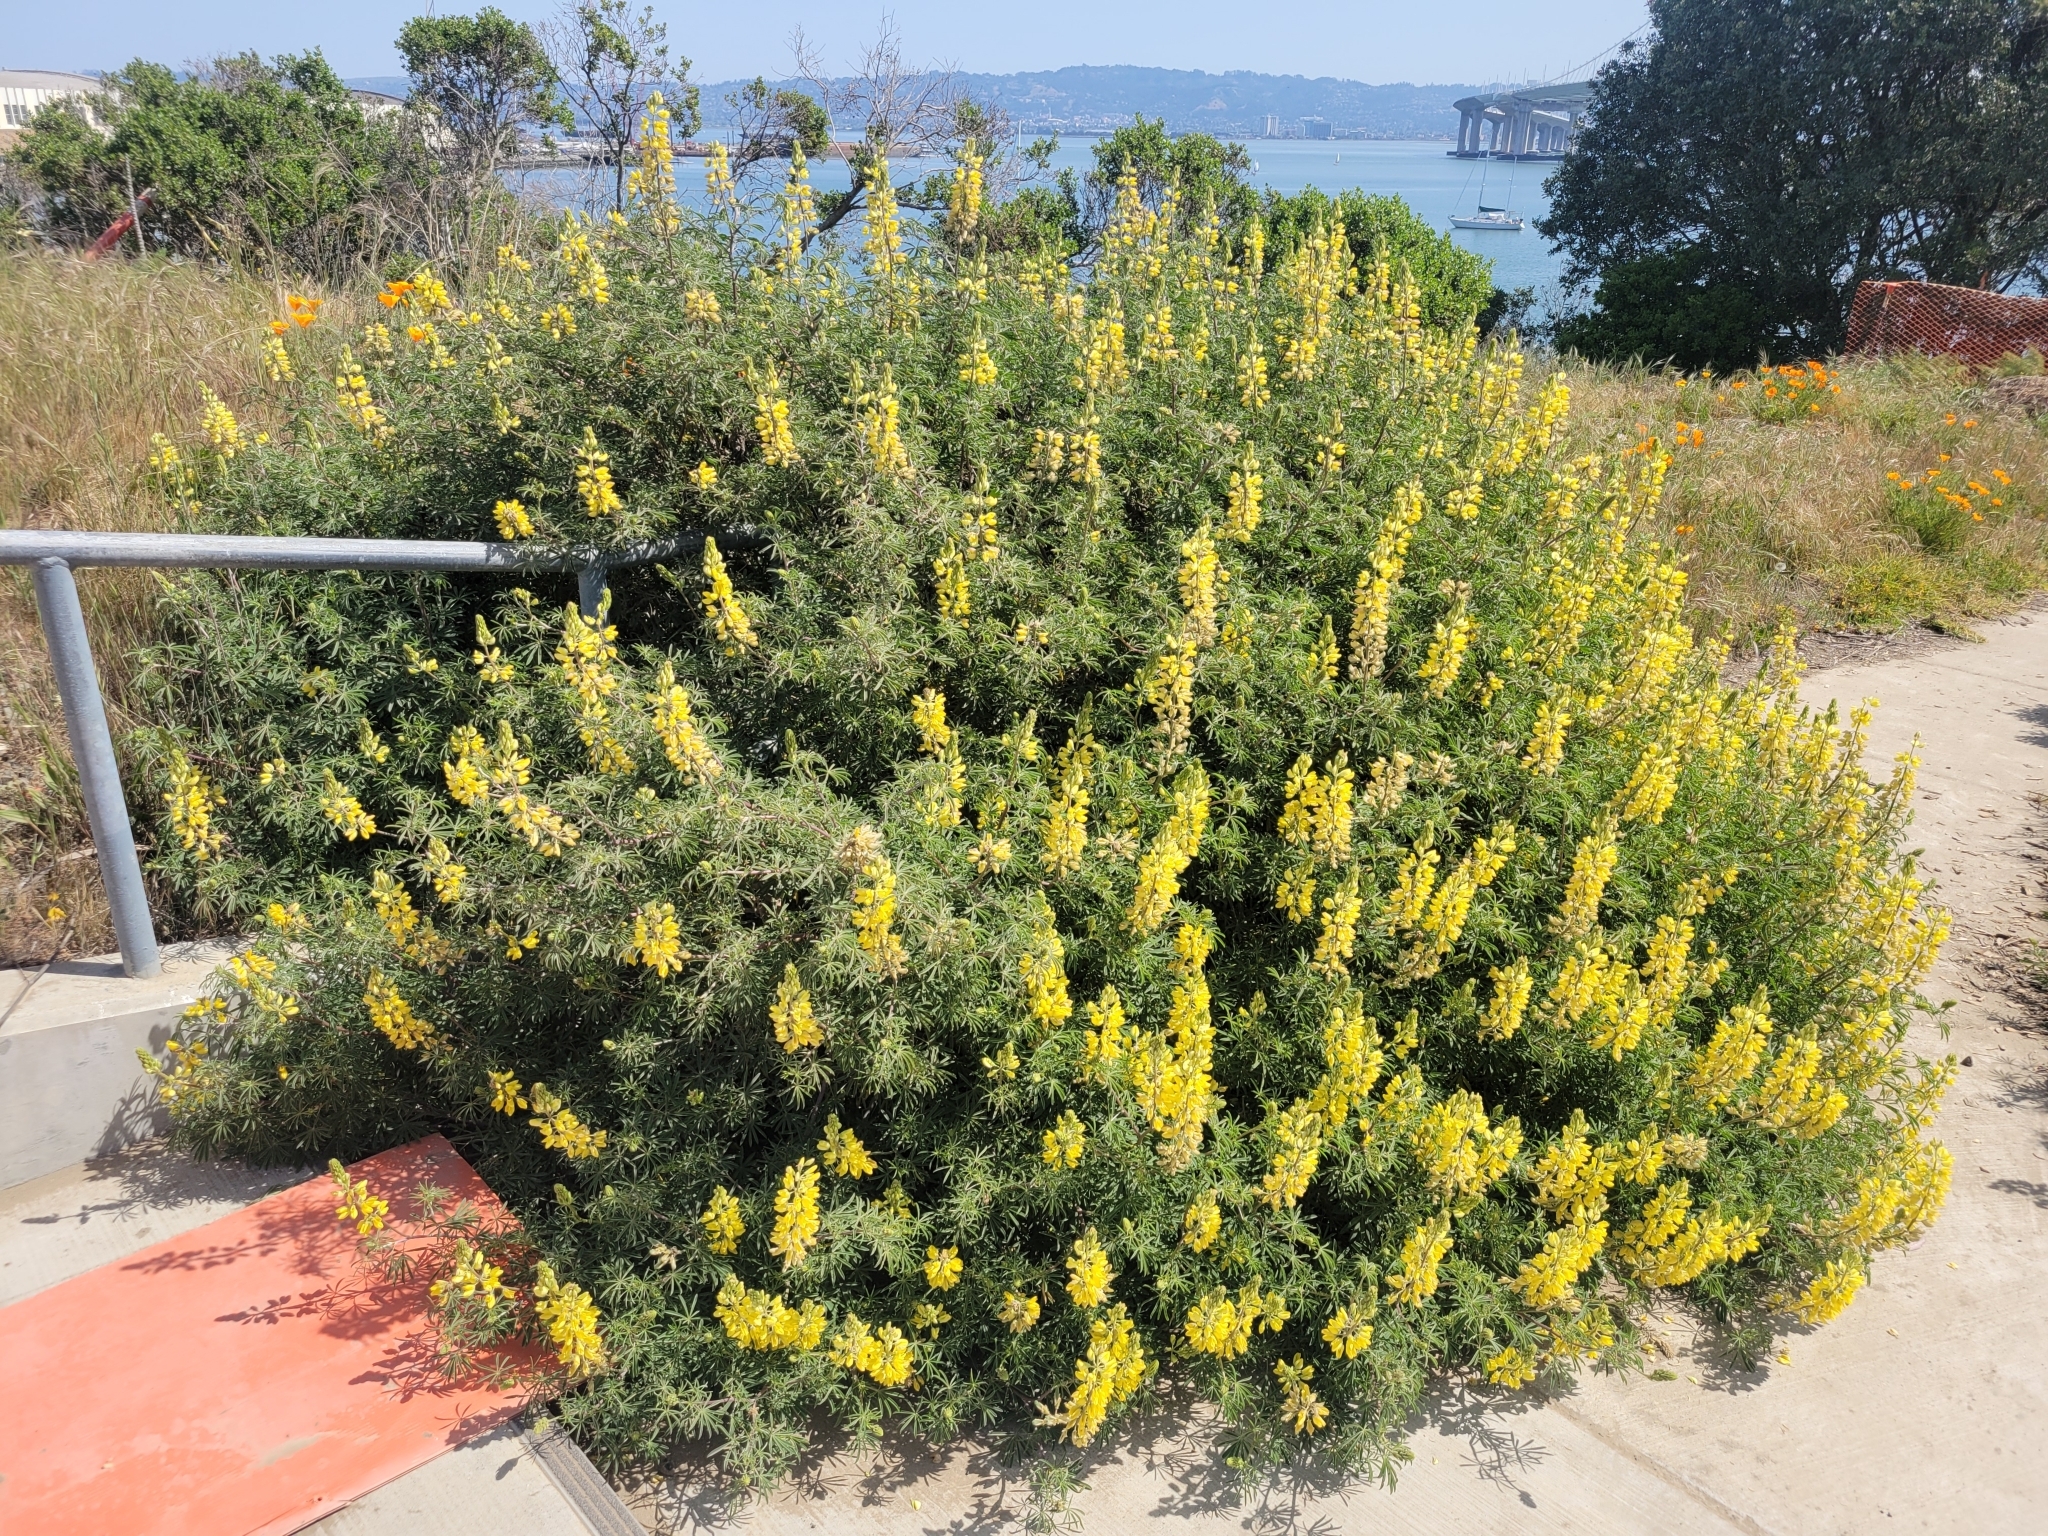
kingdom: Plantae
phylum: Tracheophyta
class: Magnoliopsida
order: Fabales
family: Fabaceae
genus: Lupinus
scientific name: Lupinus arboreus
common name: Yellow bush lupine
